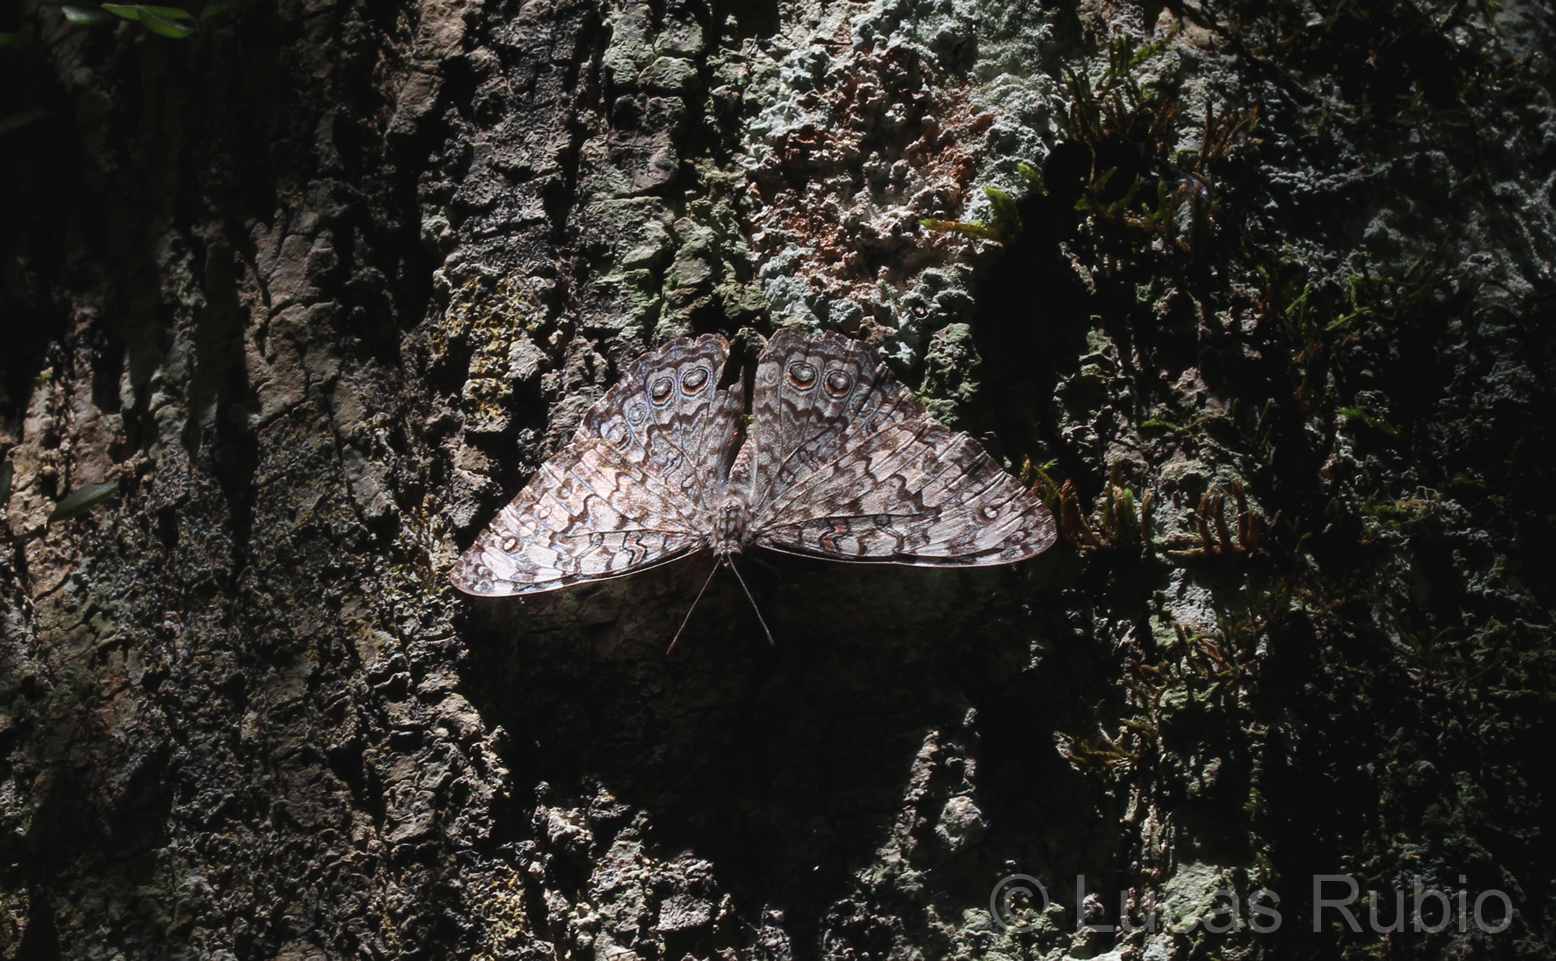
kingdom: Animalia
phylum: Arthropoda
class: Insecta
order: Lepidoptera
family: Nymphalidae
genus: Hamadryas
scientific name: Hamadryas februa
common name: Gray cracker
